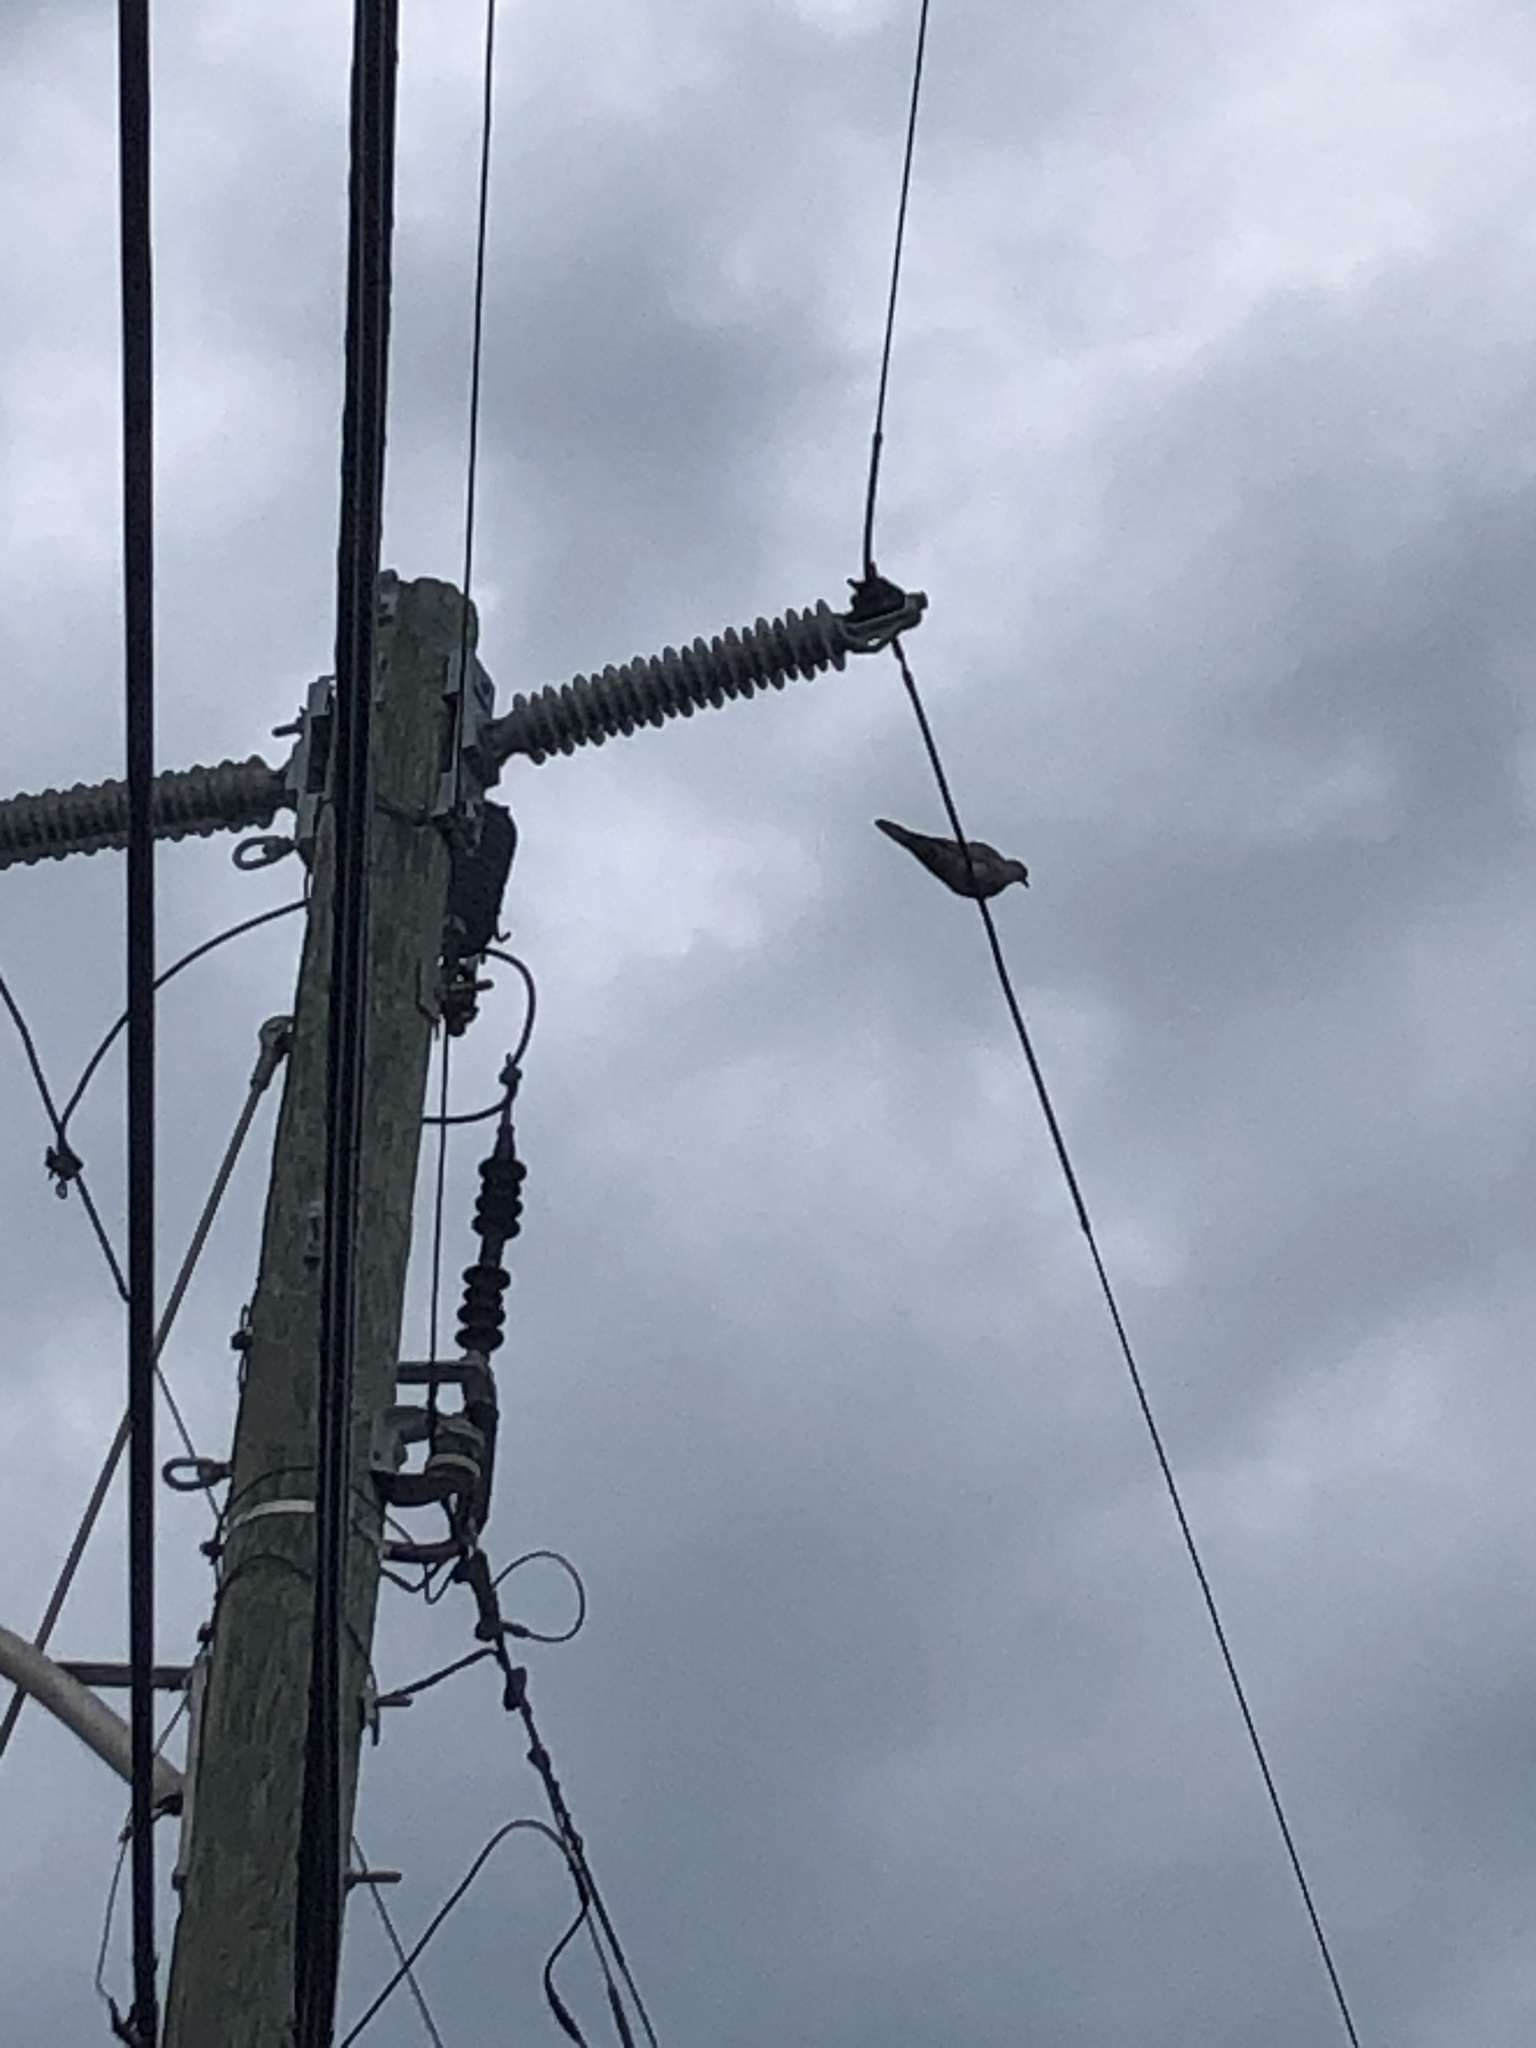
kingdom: Animalia
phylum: Chordata
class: Aves
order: Columbiformes
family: Columbidae
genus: Zenaida
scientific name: Zenaida macroura
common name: Mourning dove
